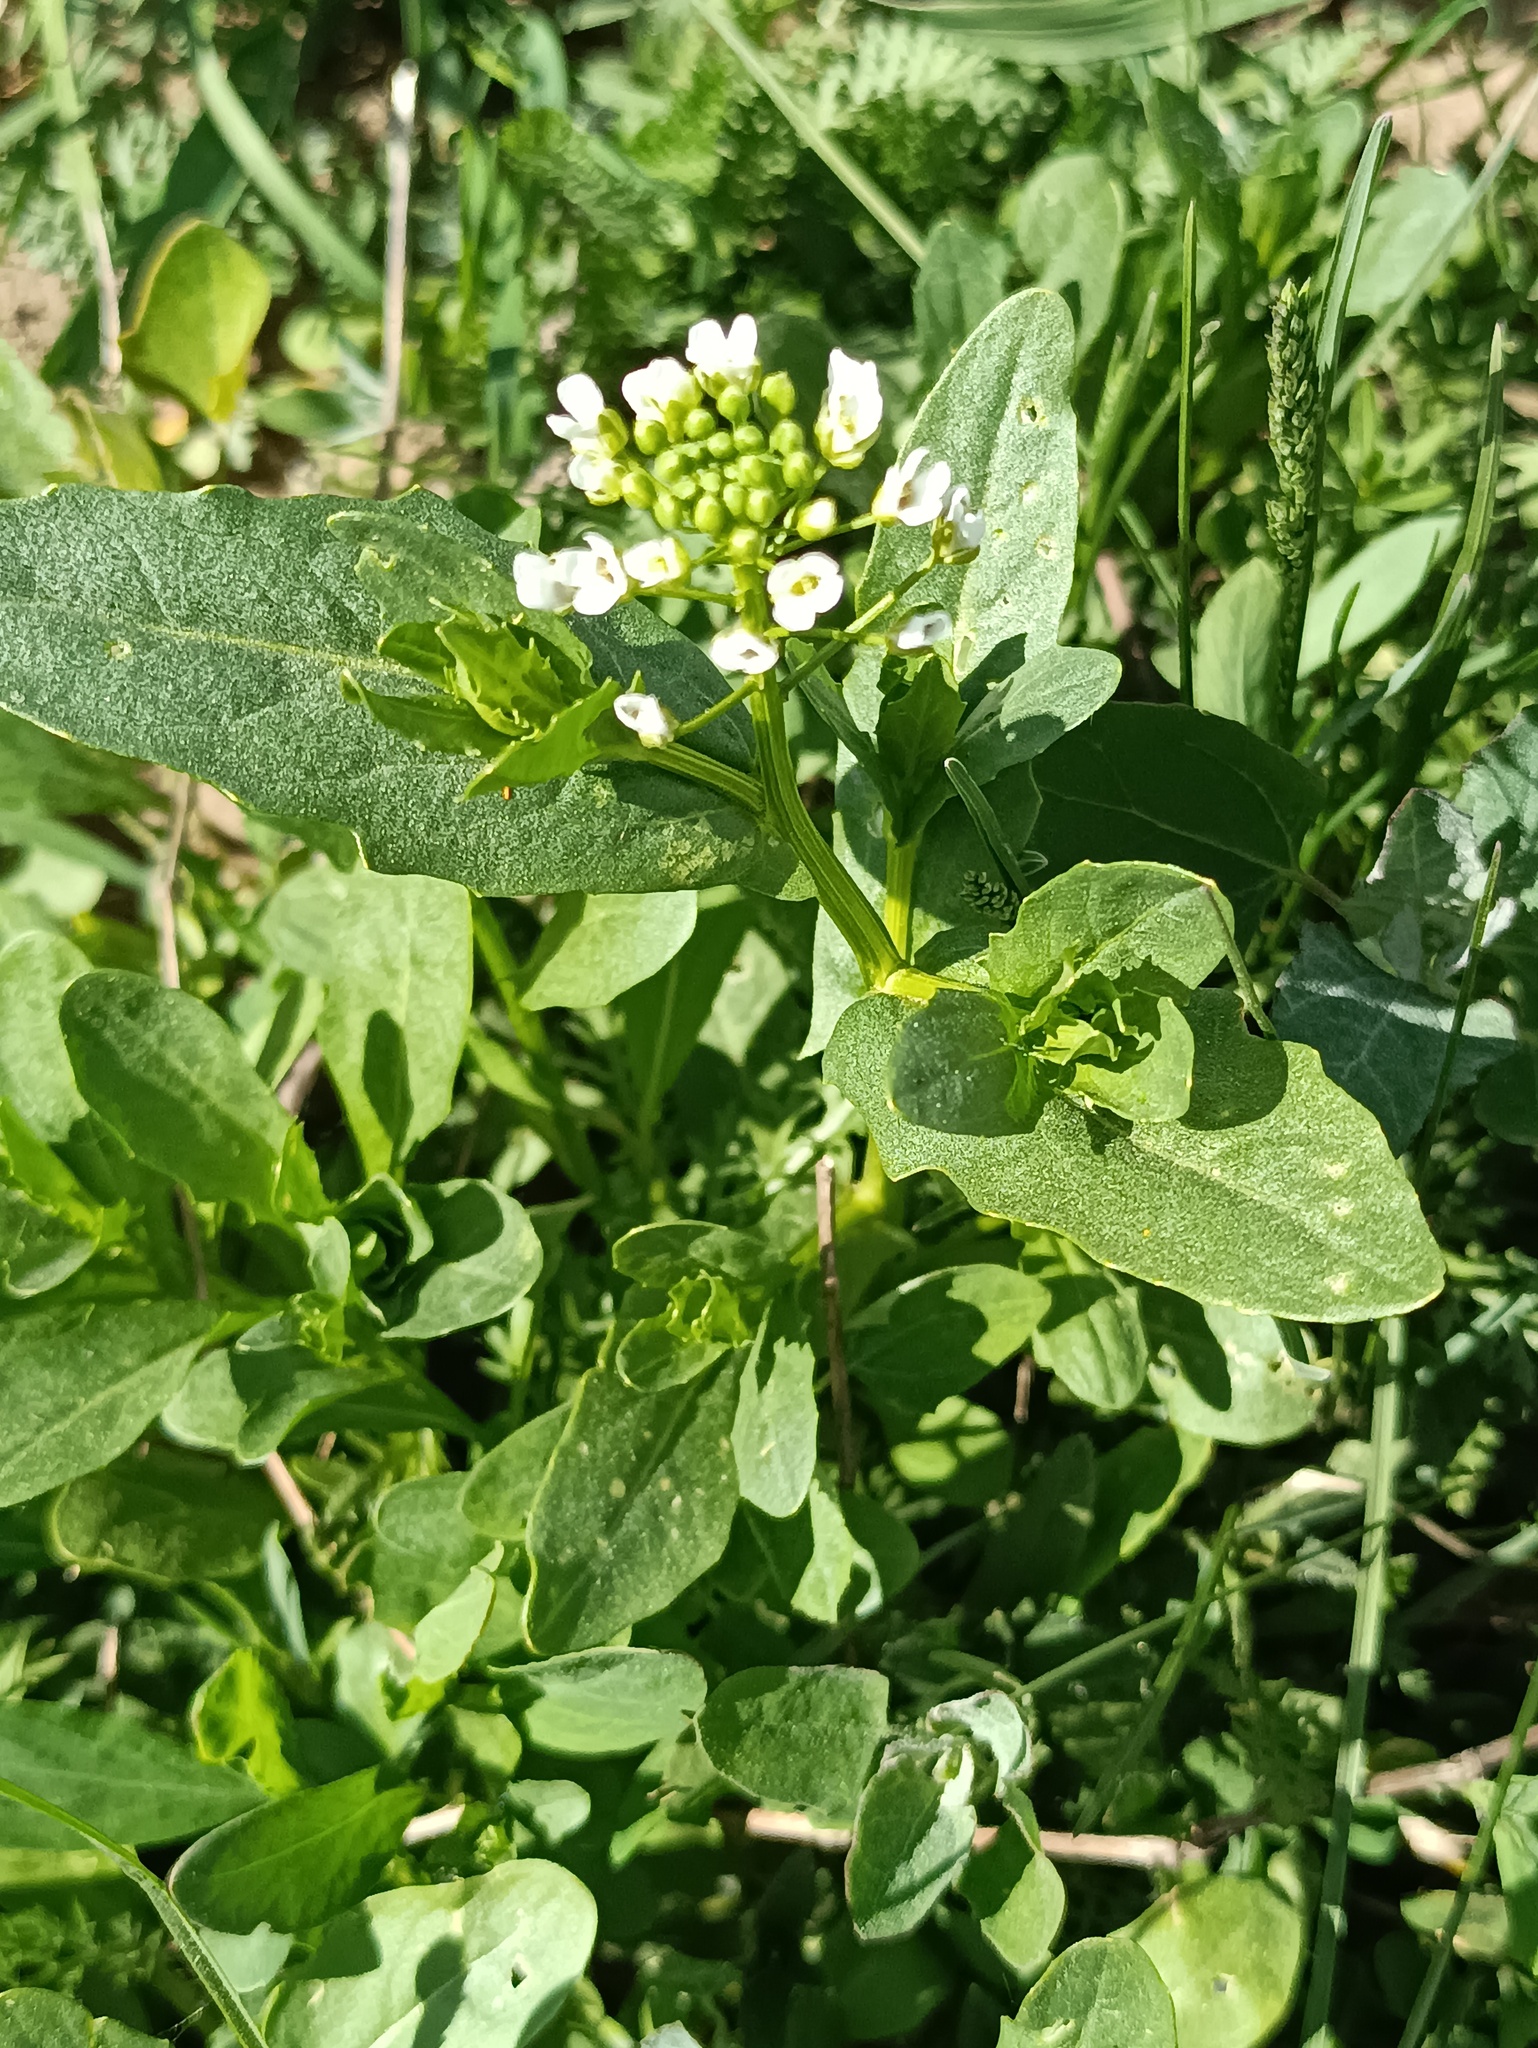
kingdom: Plantae
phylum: Tracheophyta
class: Magnoliopsida
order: Brassicales
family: Brassicaceae
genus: Thlaspi
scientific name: Thlaspi arvense
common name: Field pennycress
